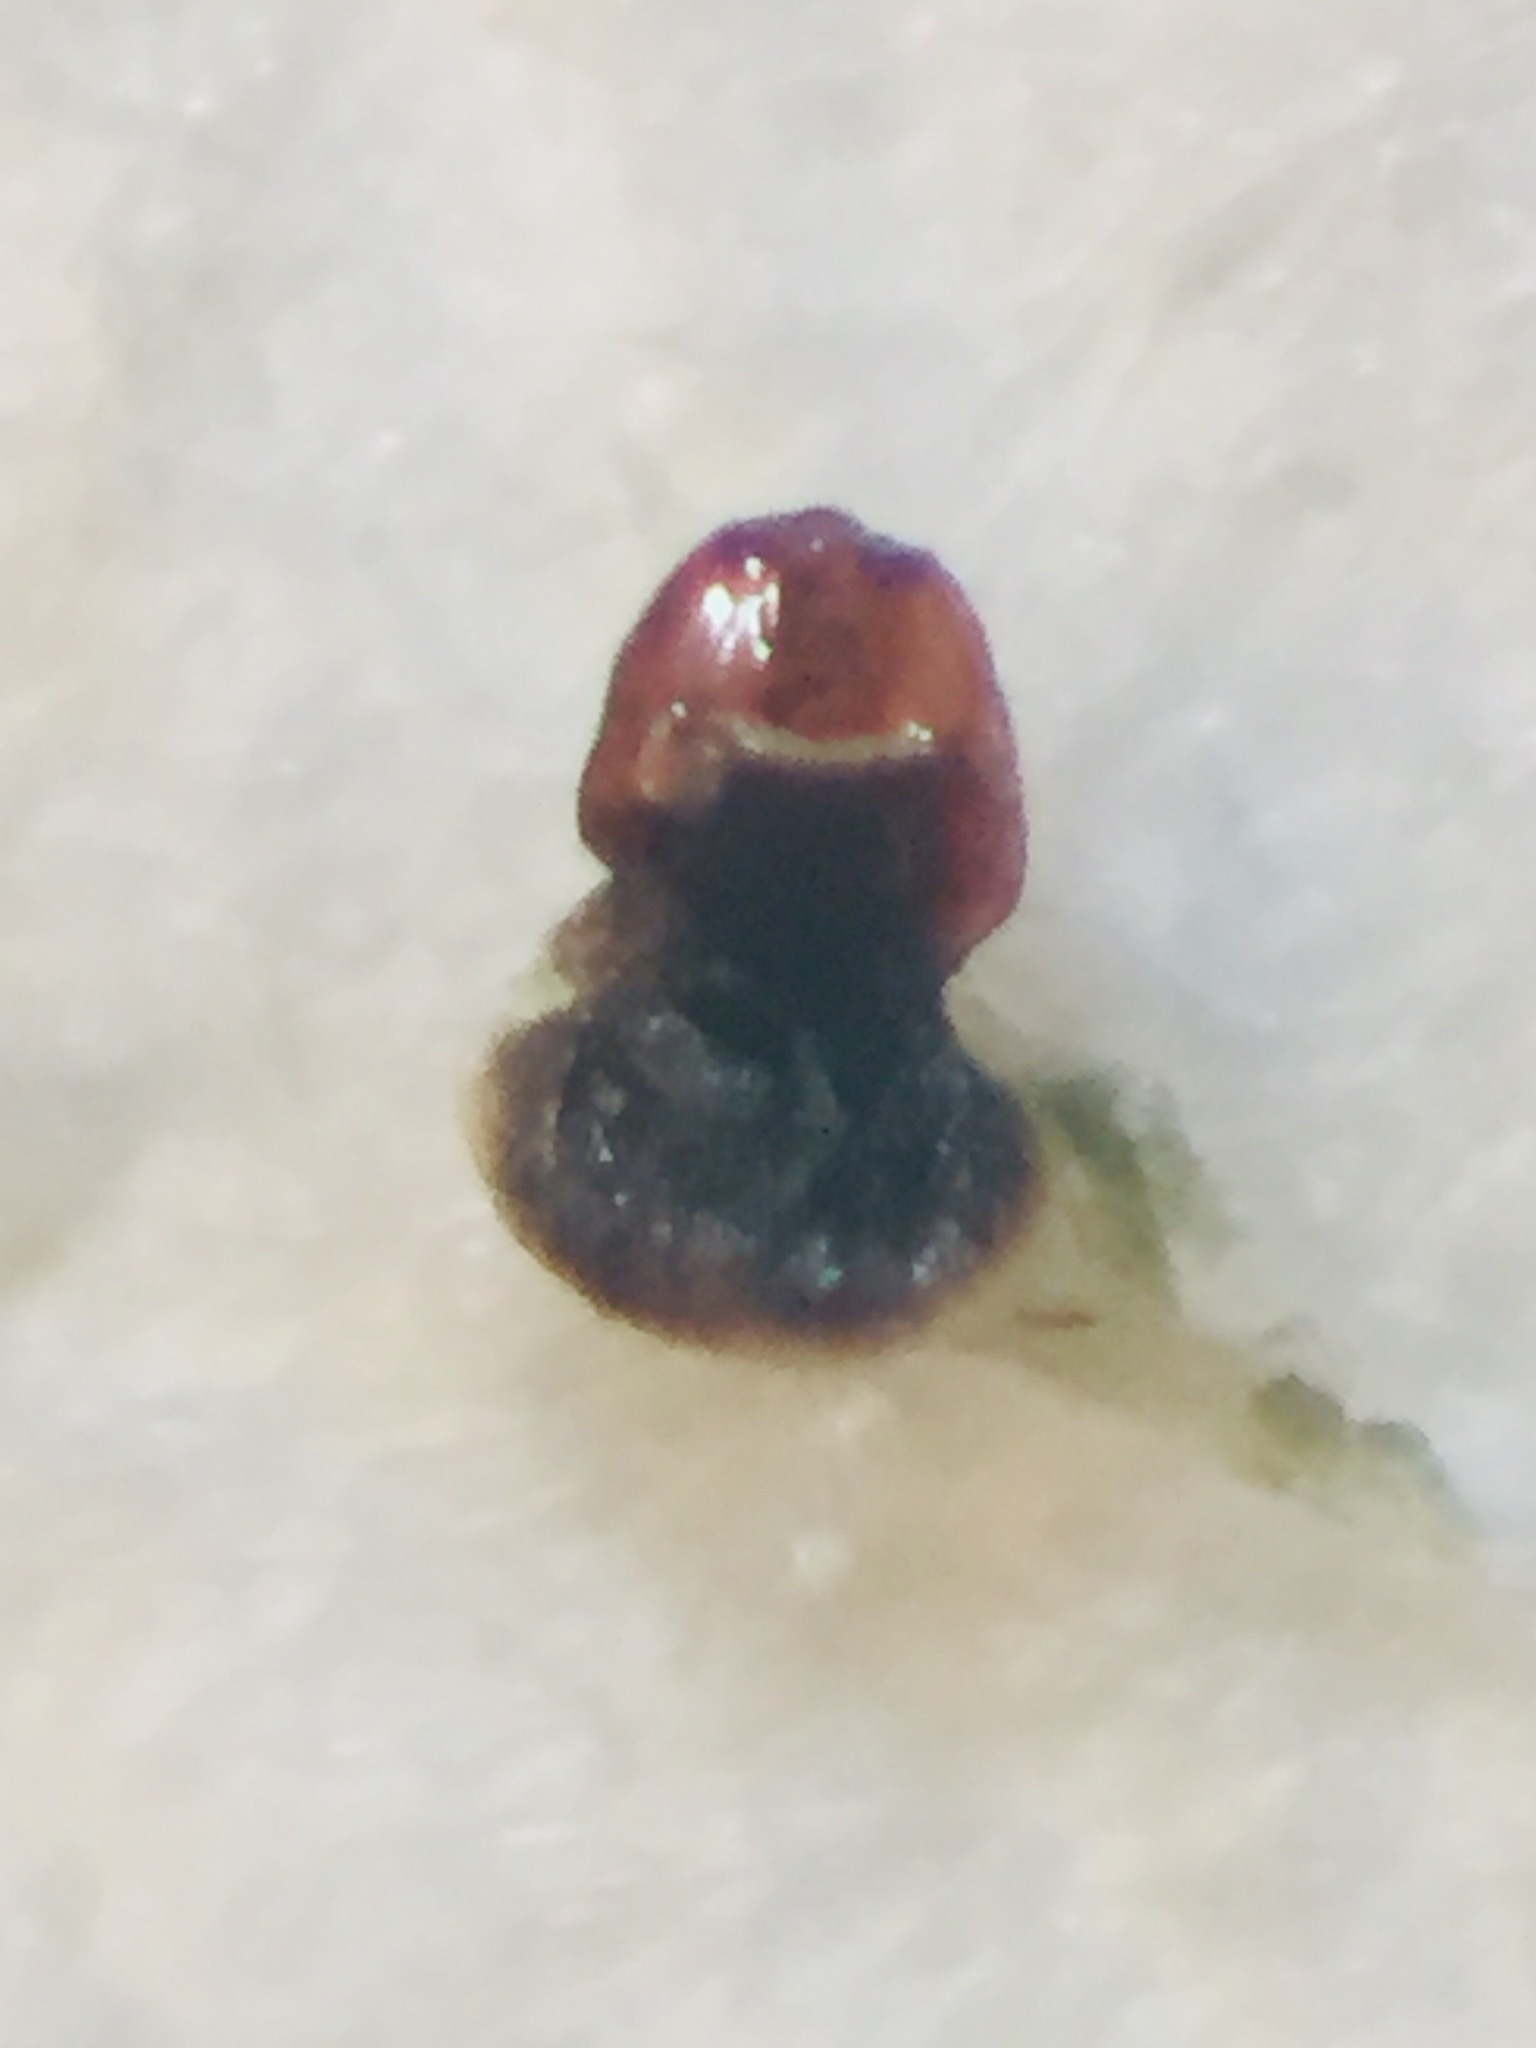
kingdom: Animalia
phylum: Arthropoda
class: Insecta
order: Strepsiptera
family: Halictophagidae
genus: Coriophagus
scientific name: Coriophagus casui
